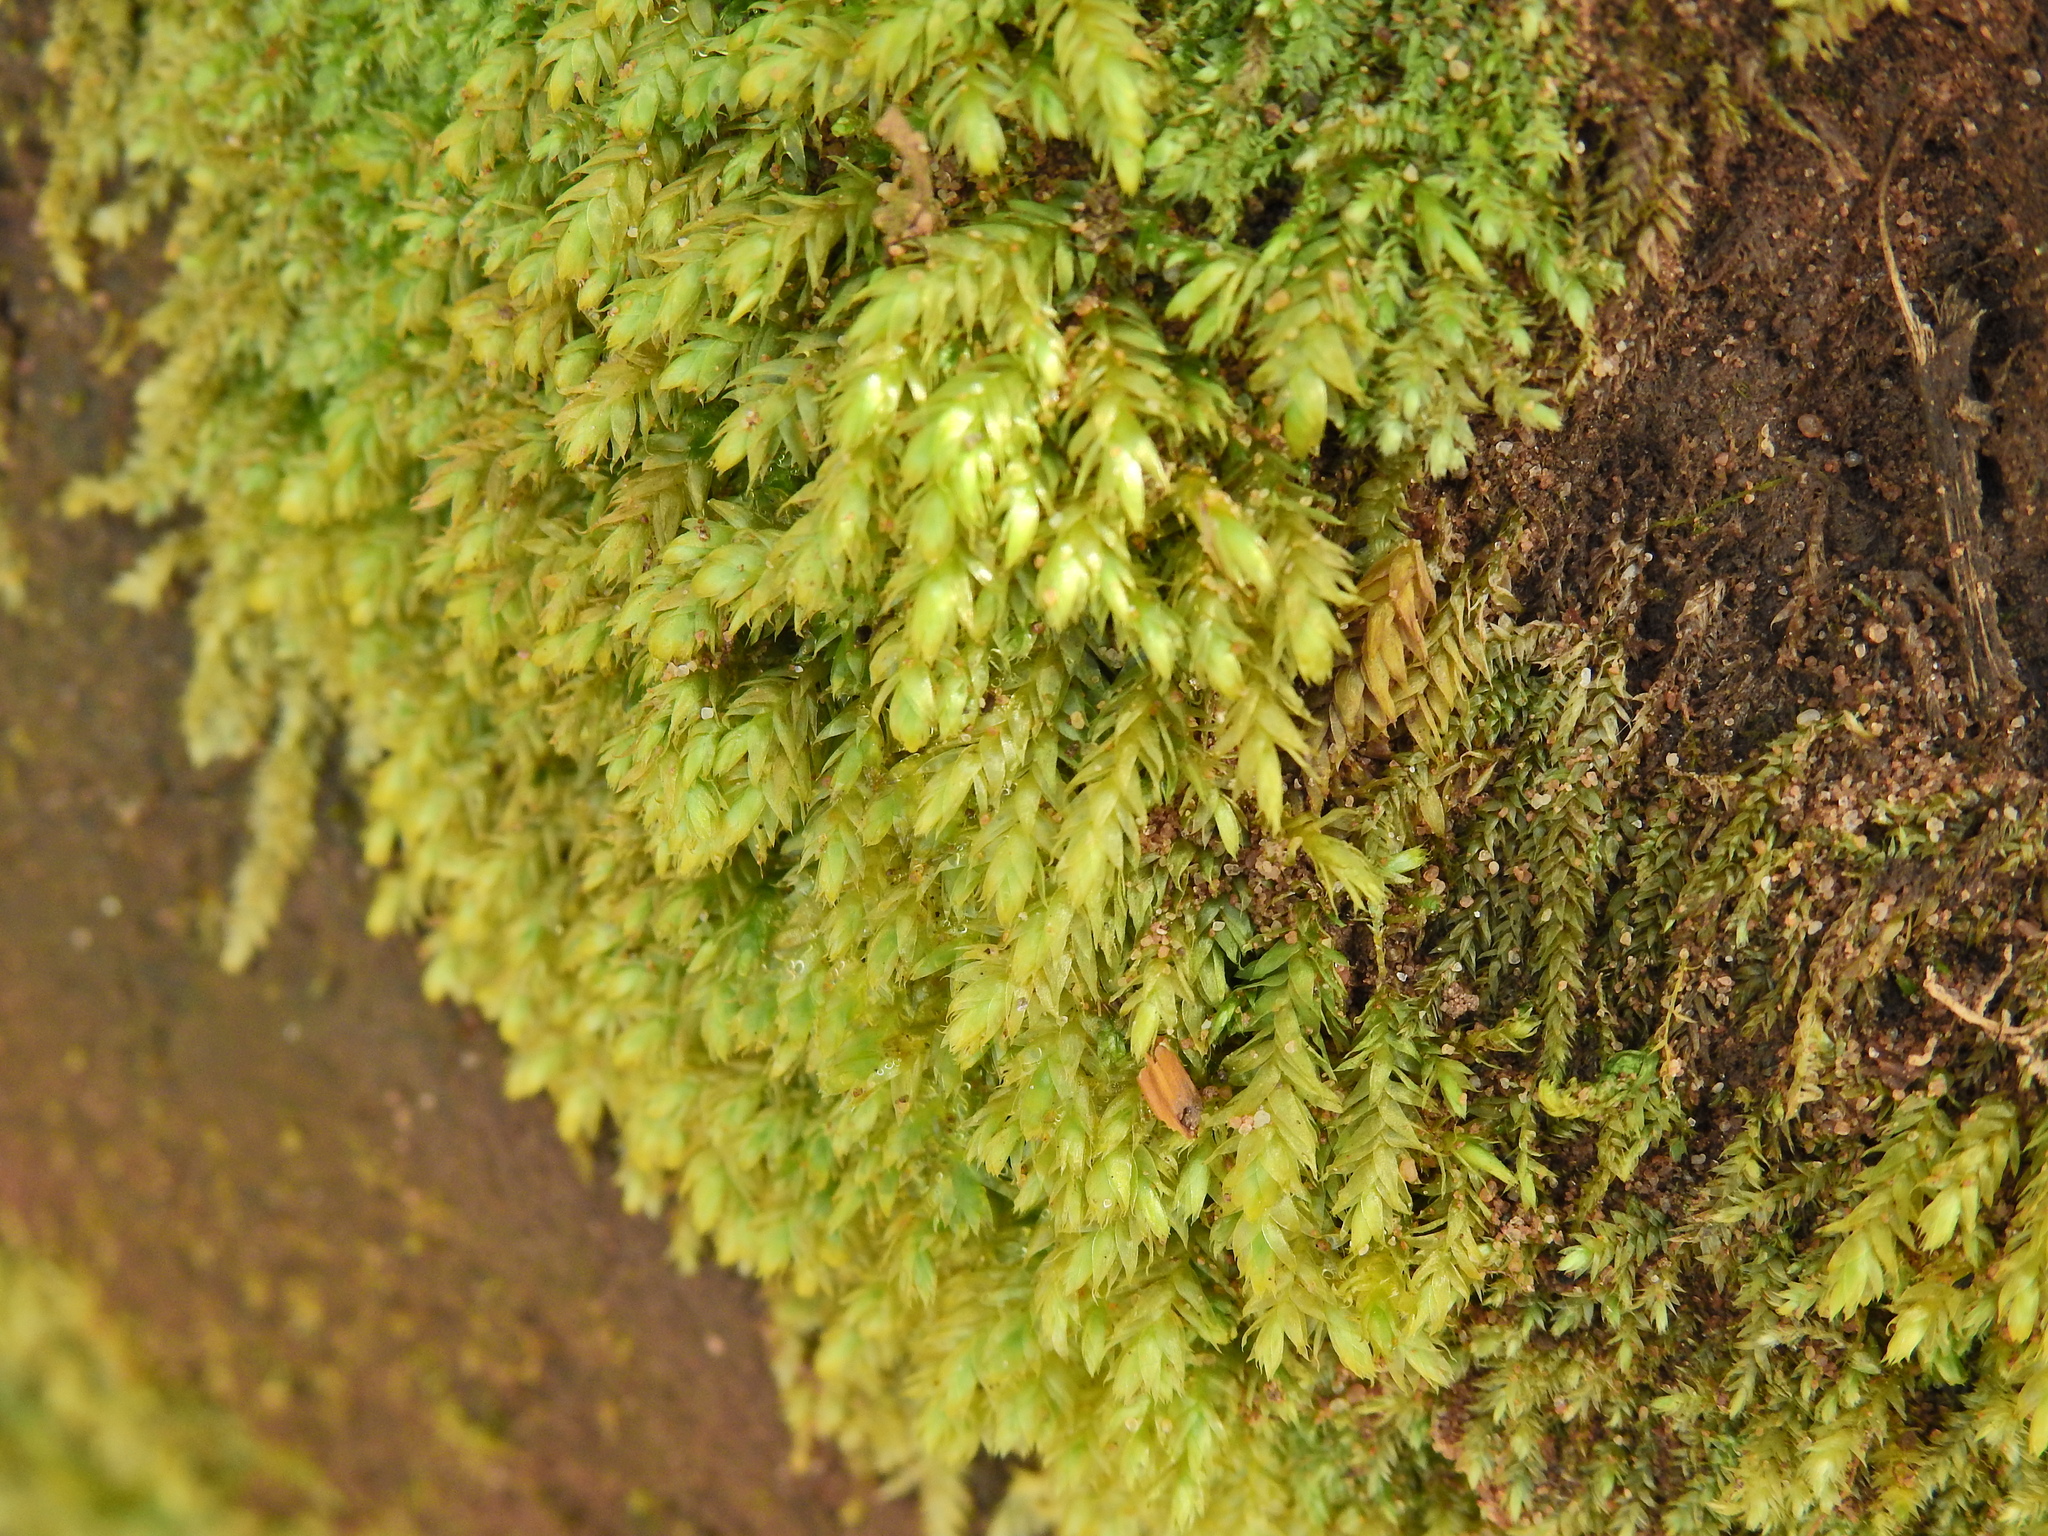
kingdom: Plantae
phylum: Bryophyta
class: Bryopsida
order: Bryales
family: Mniaceae
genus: Mnium
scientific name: Mnium hornum
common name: Swan's-neck leafy moss
